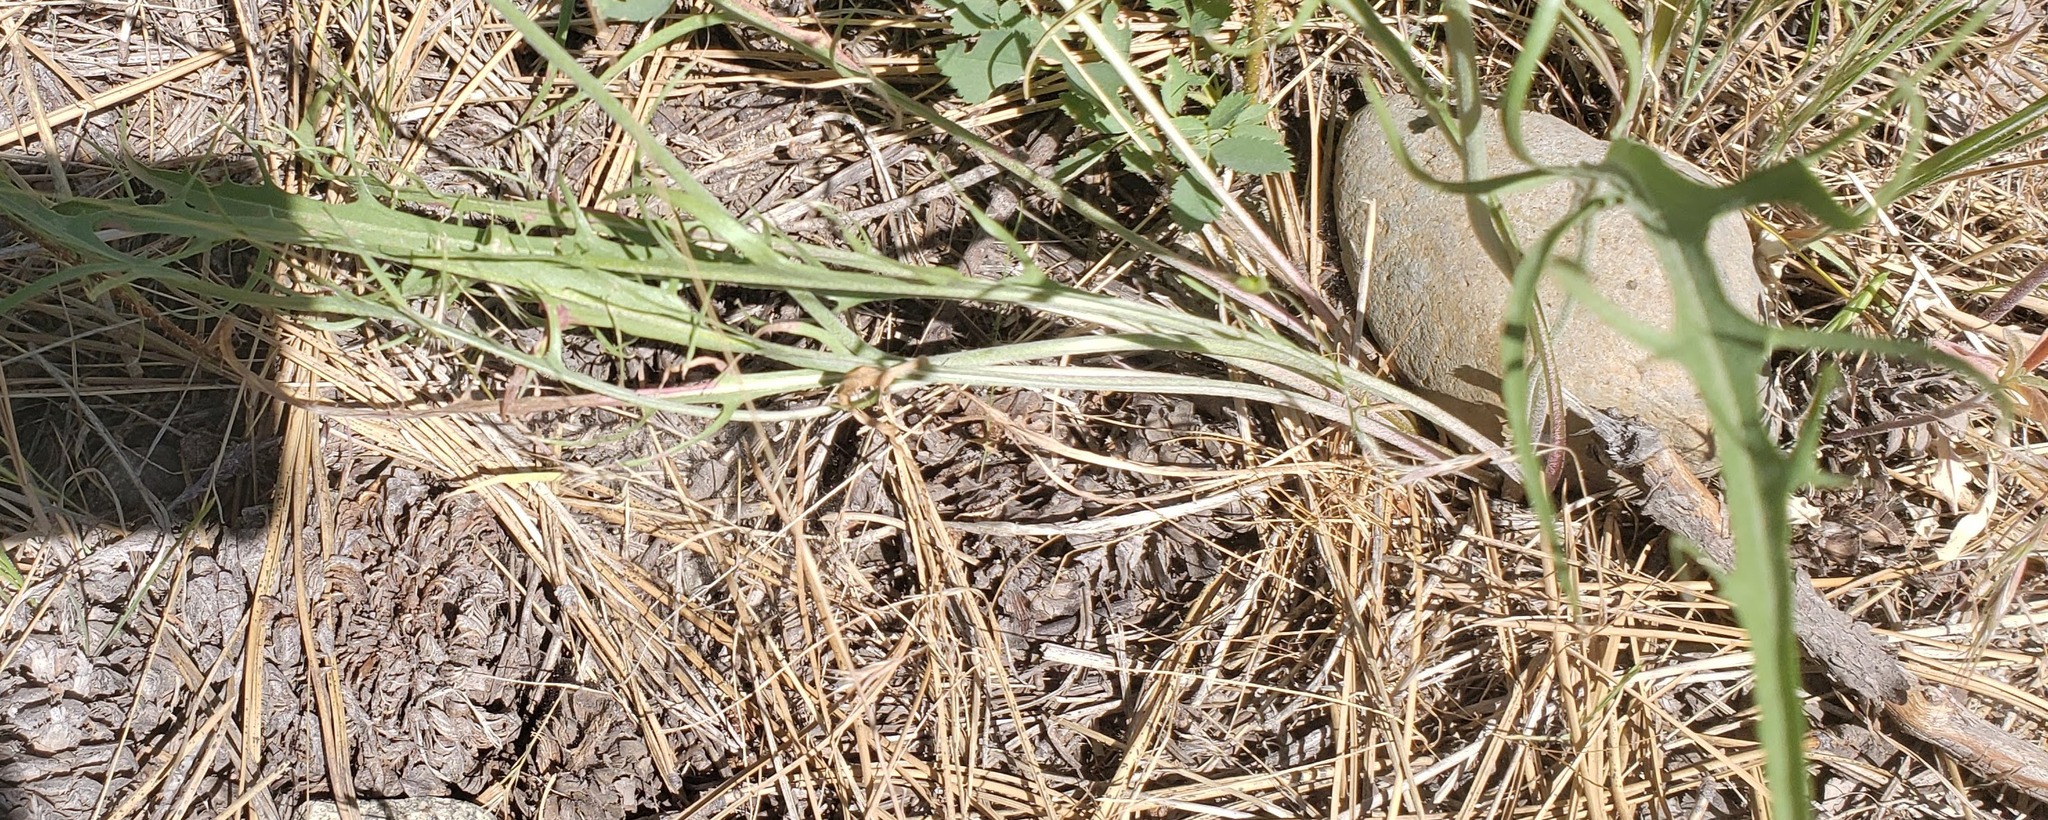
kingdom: Plantae
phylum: Tracheophyta
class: Magnoliopsida
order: Asterales
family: Asteraceae
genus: Crepis
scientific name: Crepis atribarba
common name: Dark hawk's-beard
